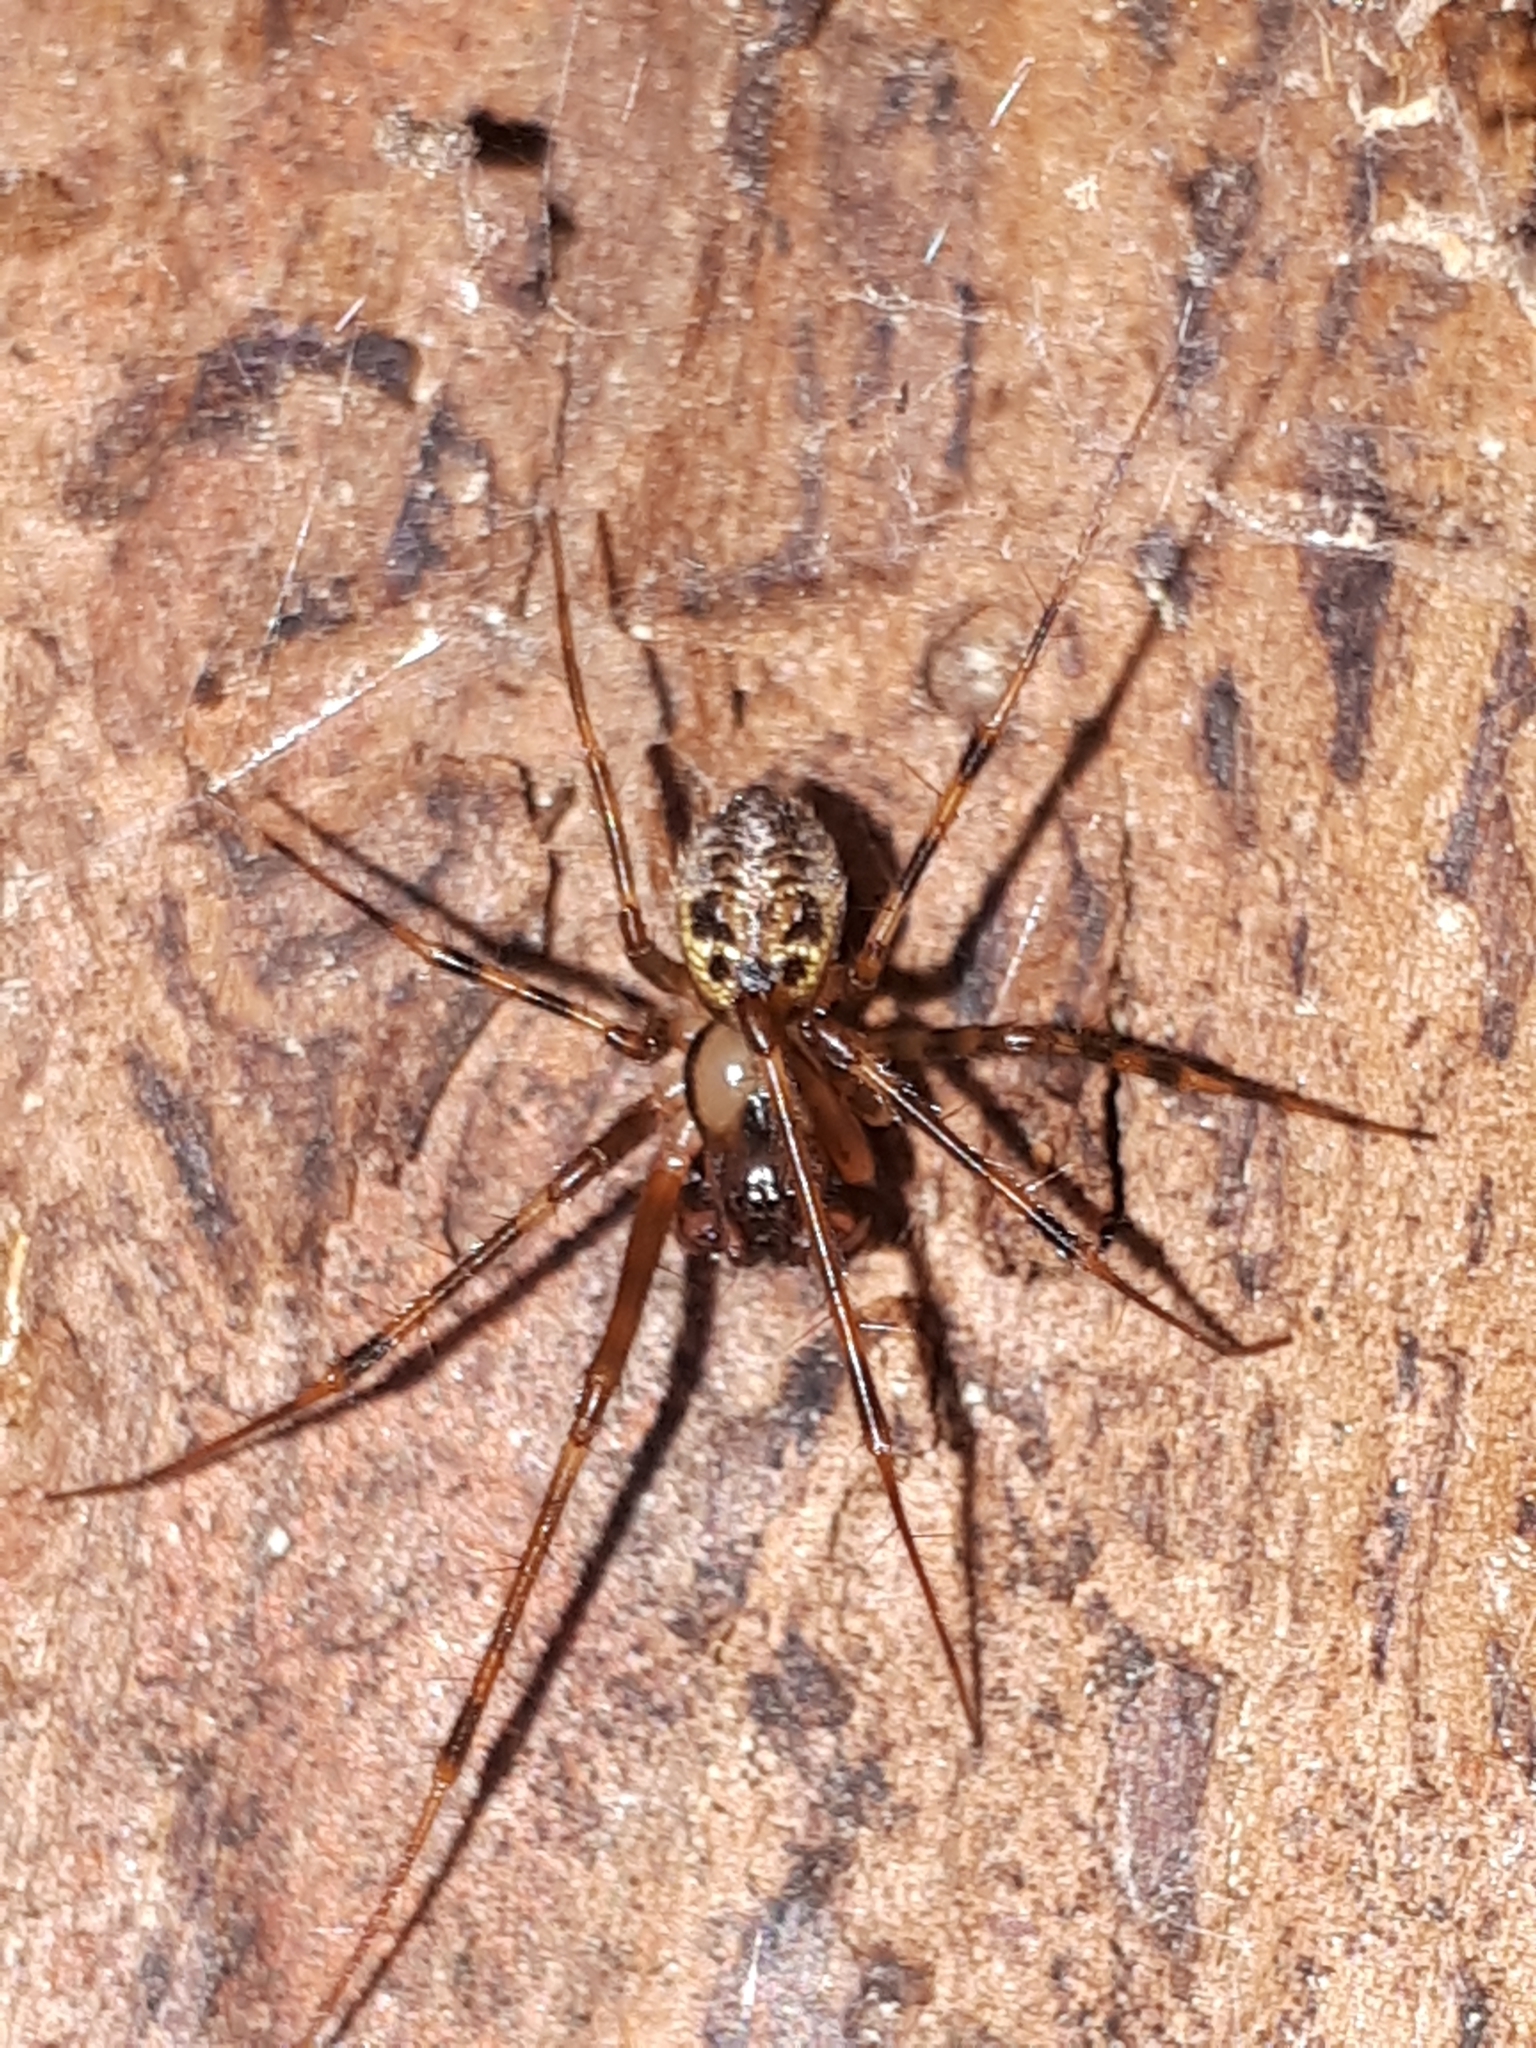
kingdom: Animalia
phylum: Arthropoda
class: Arachnida
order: Araneae
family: Linyphiidae
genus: Labulla
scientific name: Labulla thoracica
